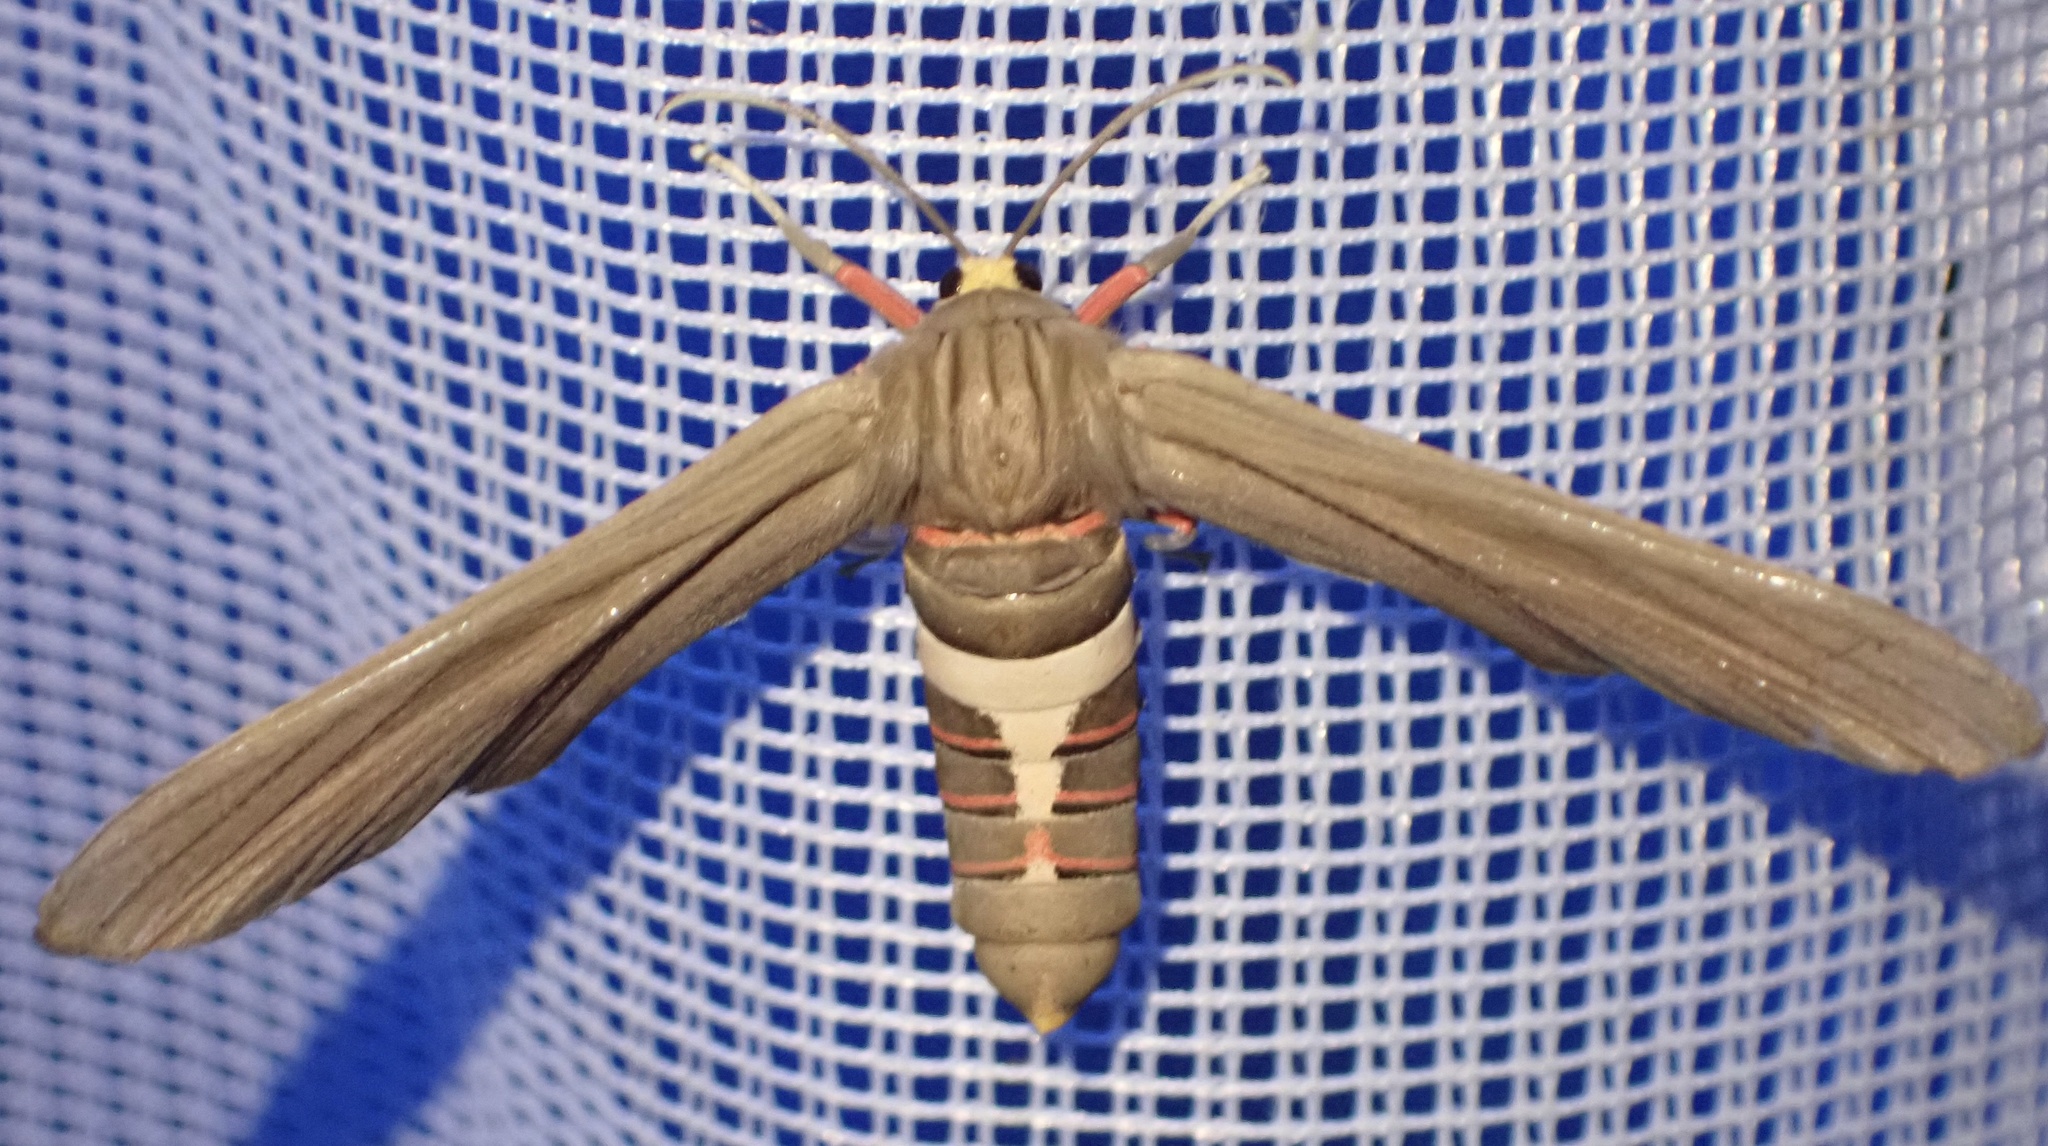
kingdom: Animalia
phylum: Arthropoda
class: Insecta
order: Lepidoptera
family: Erebidae
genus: Paramelisa
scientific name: Paramelisa lophura
